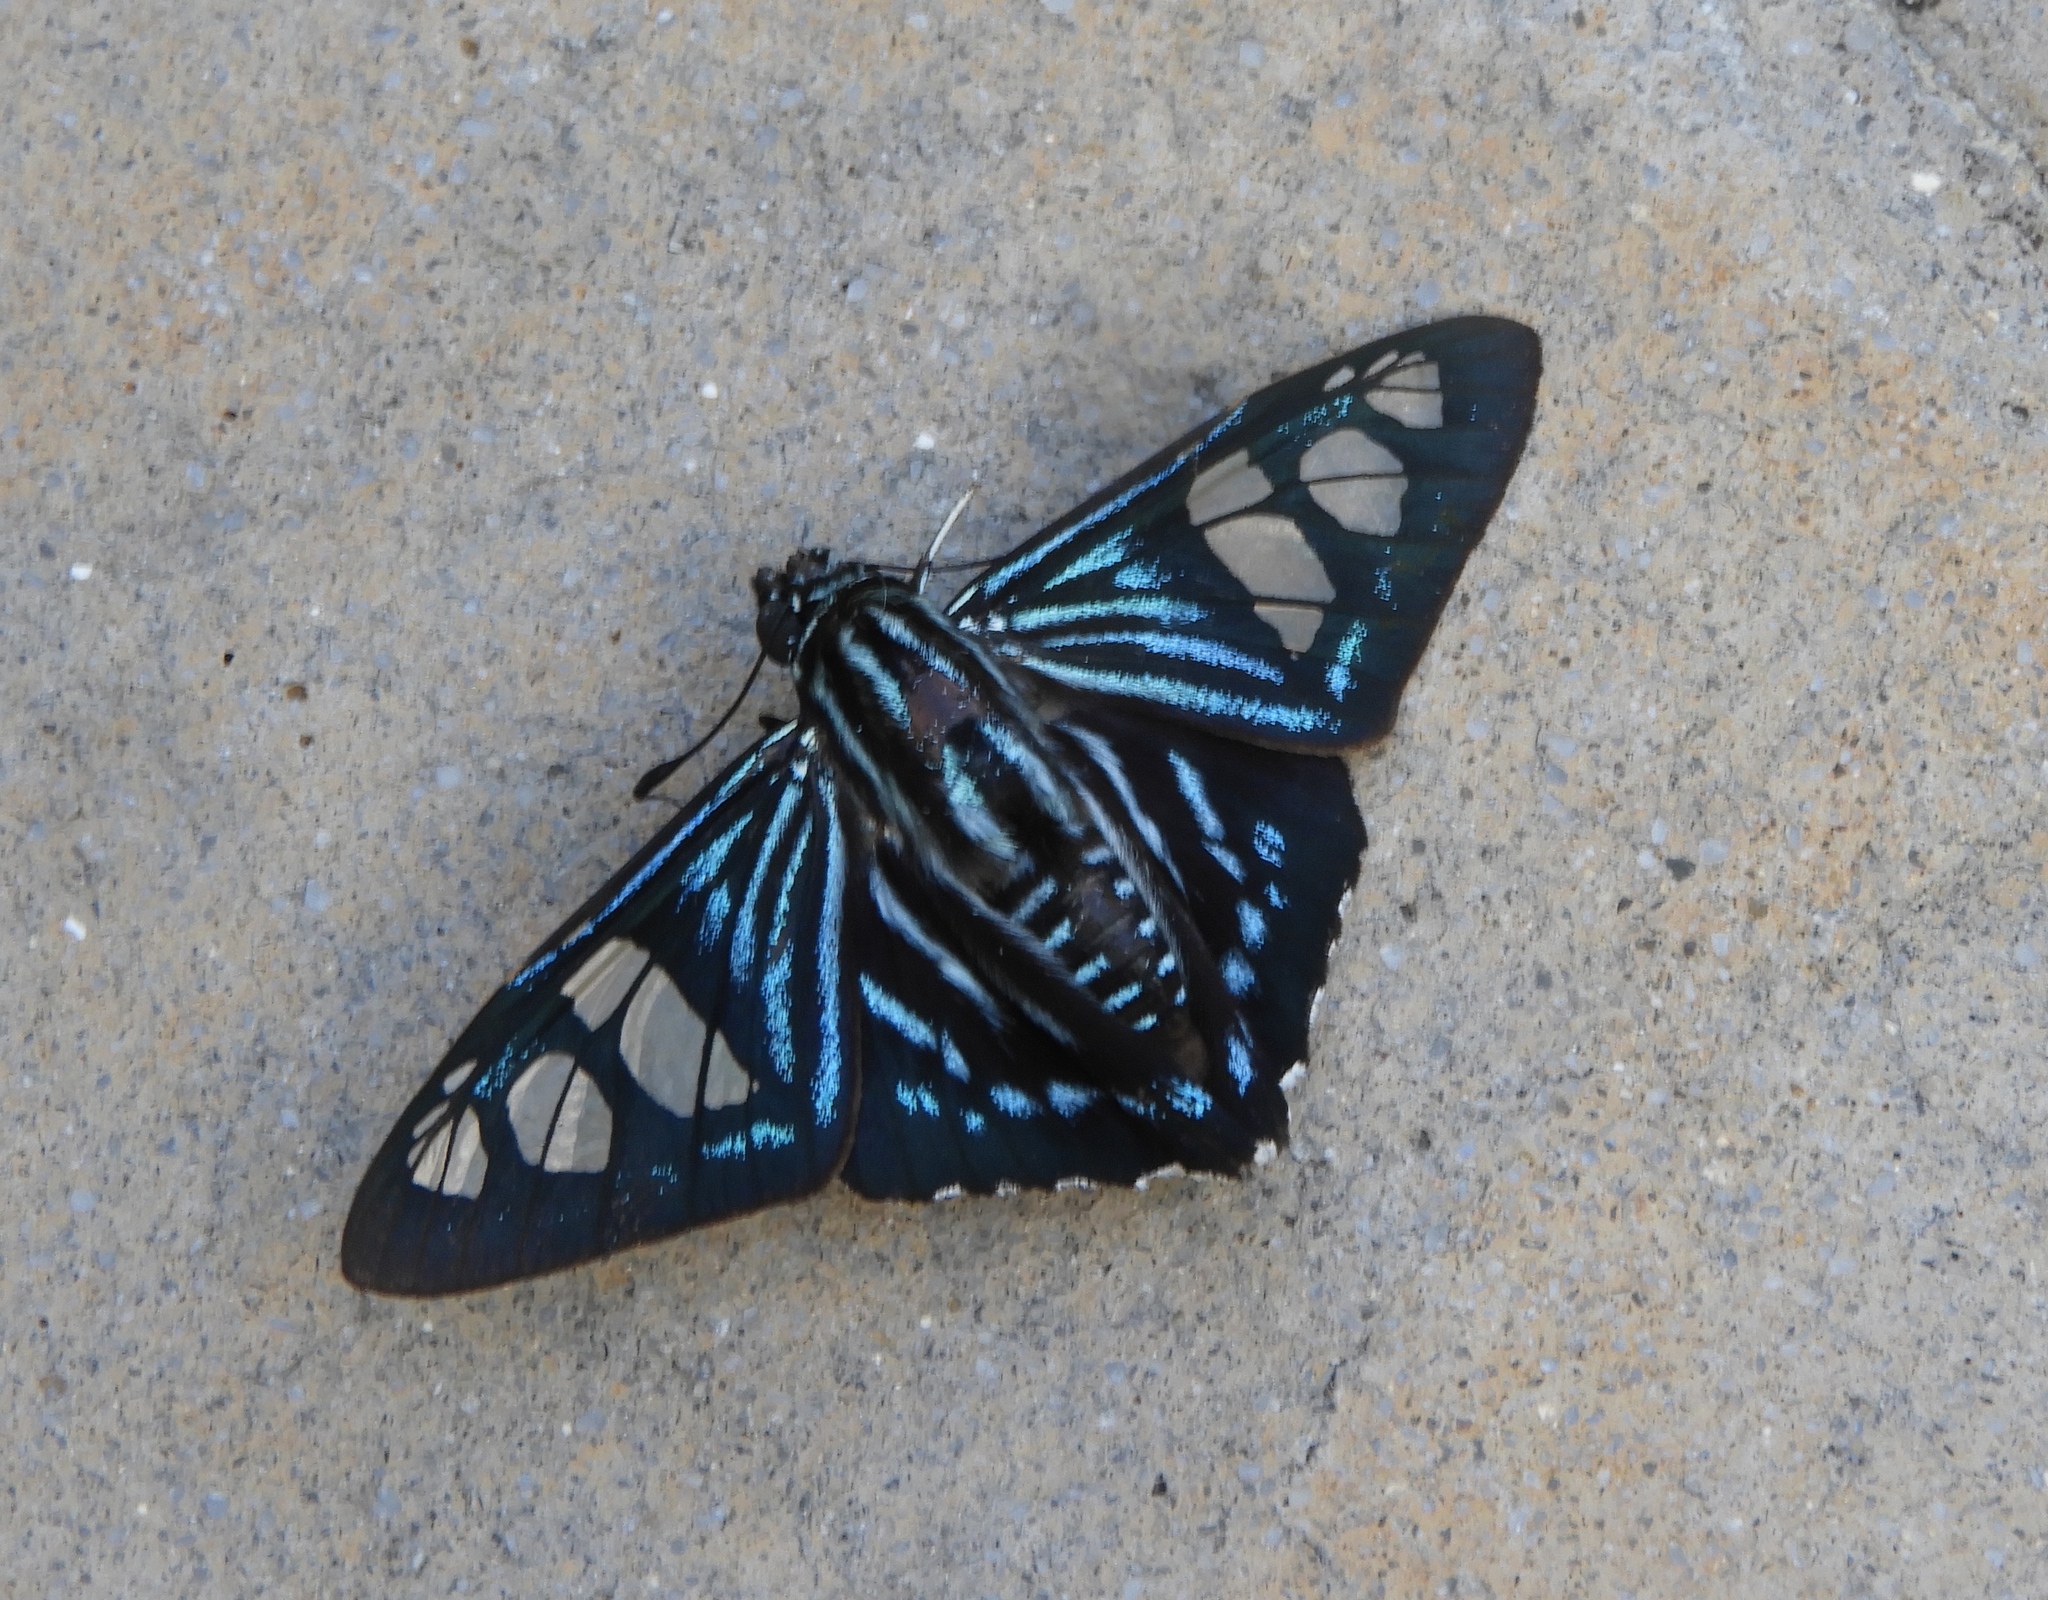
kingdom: Animalia
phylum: Arthropoda
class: Insecta
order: Lepidoptera
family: Hesperiidae
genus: Phocides
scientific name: Phocides pigmalion
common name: Mangrove skipper
